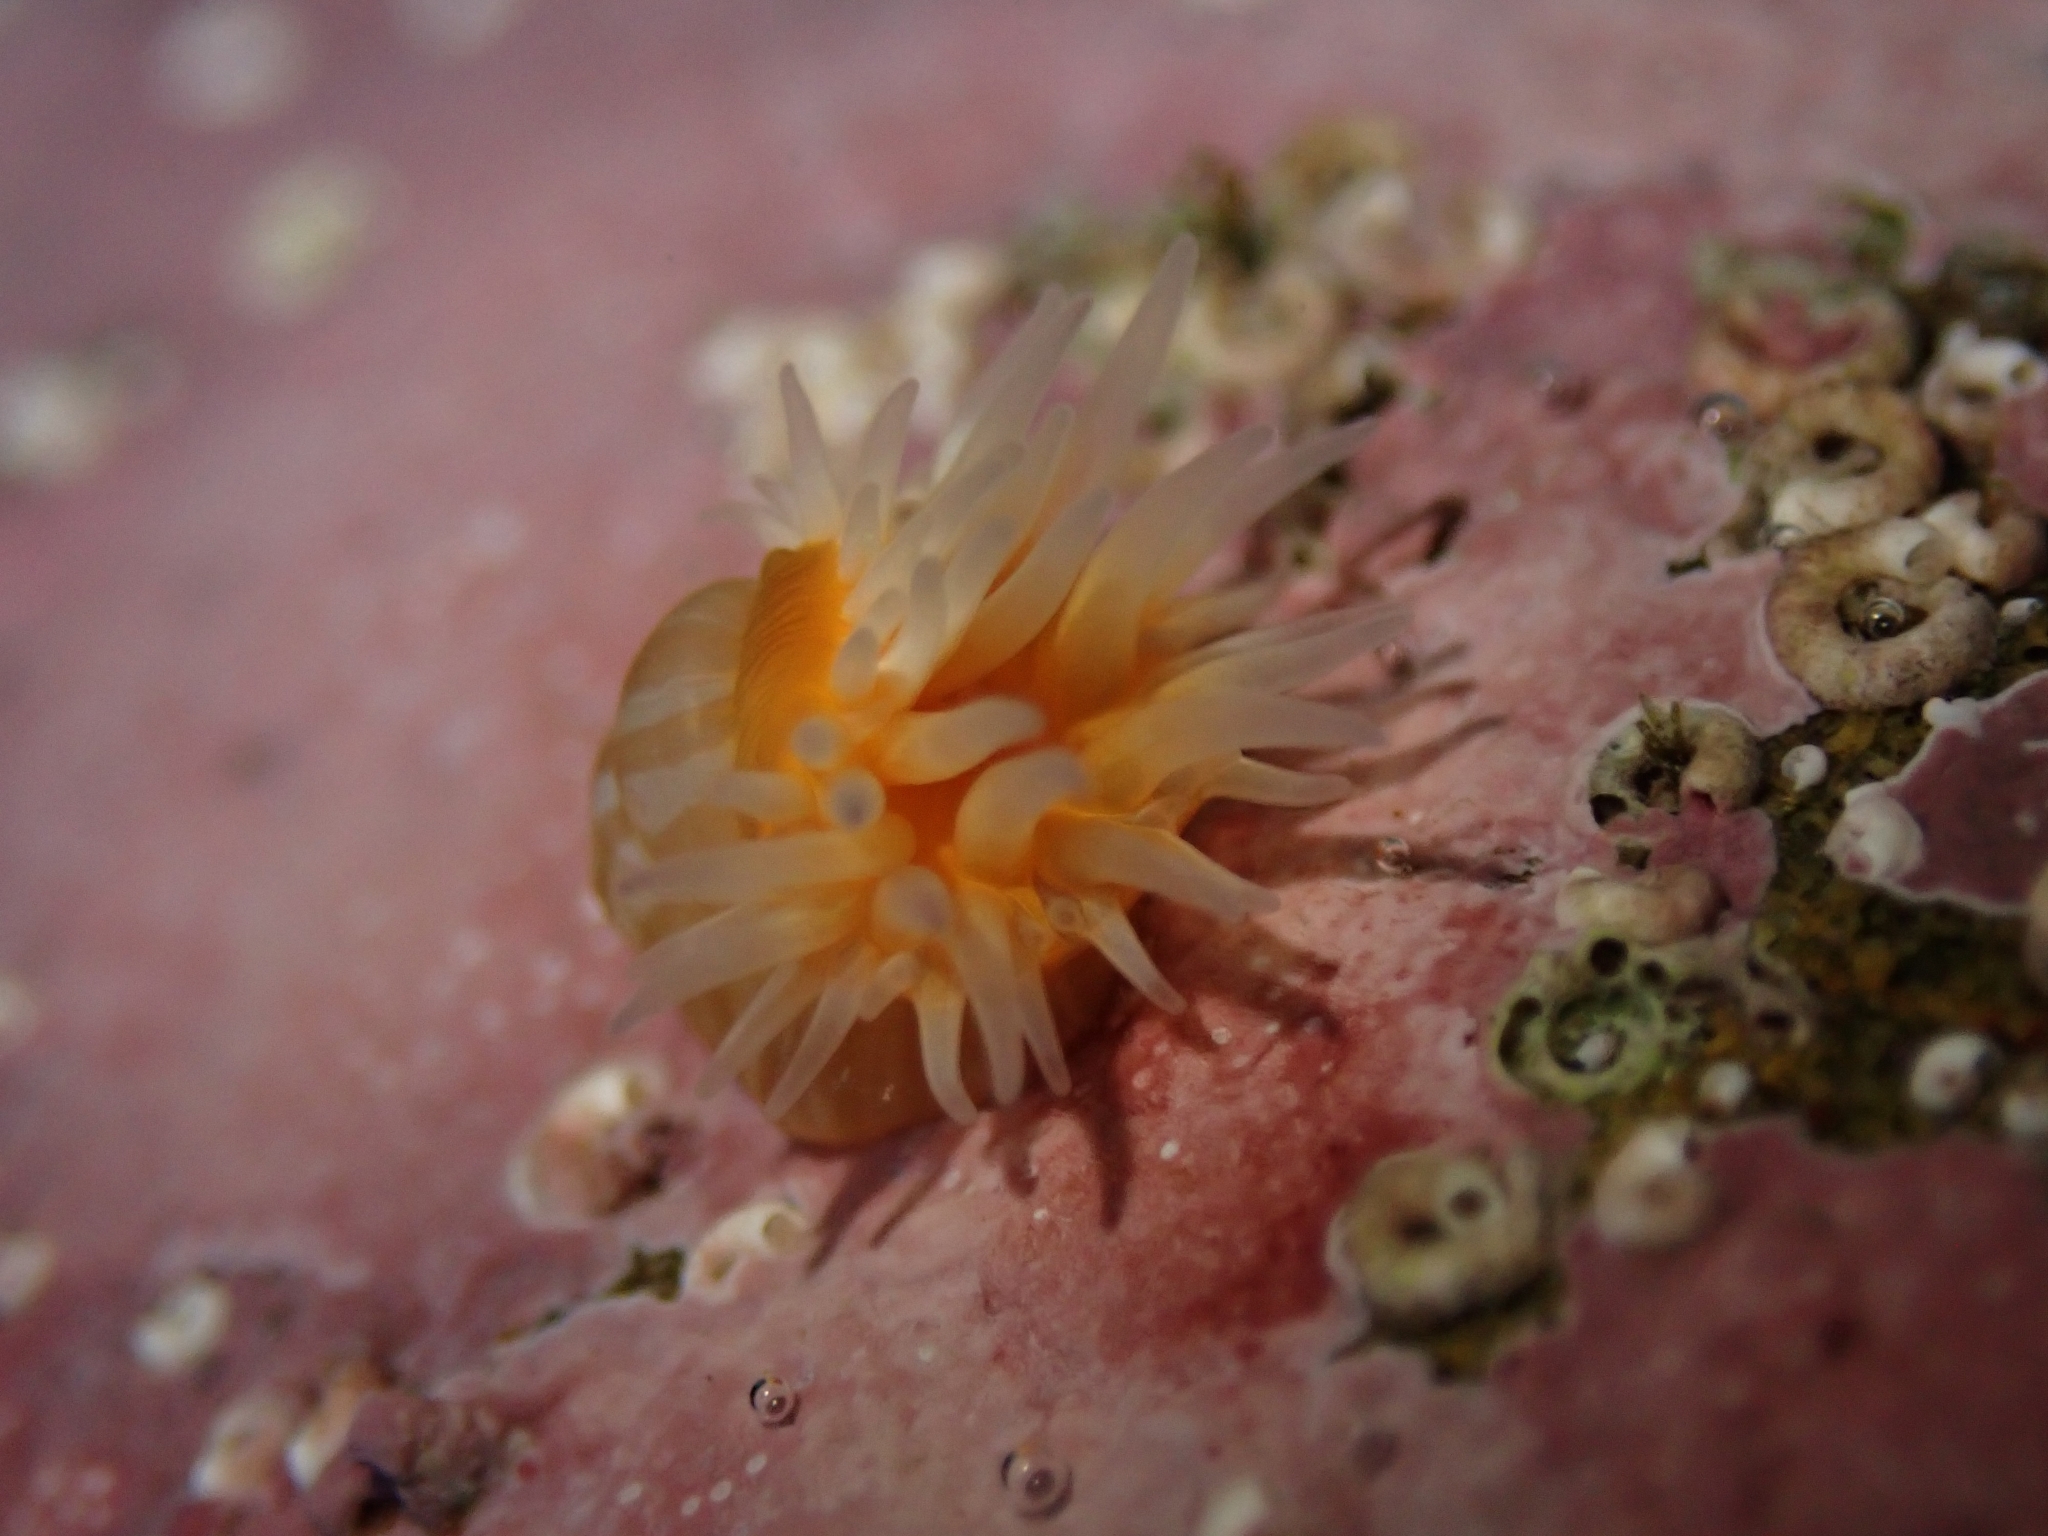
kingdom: Animalia
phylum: Cnidaria
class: Anthozoa
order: Actiniaria
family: Sagartiidae
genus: Anthothoe
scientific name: Anthothoe albocincta
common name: Orange striped anemone
